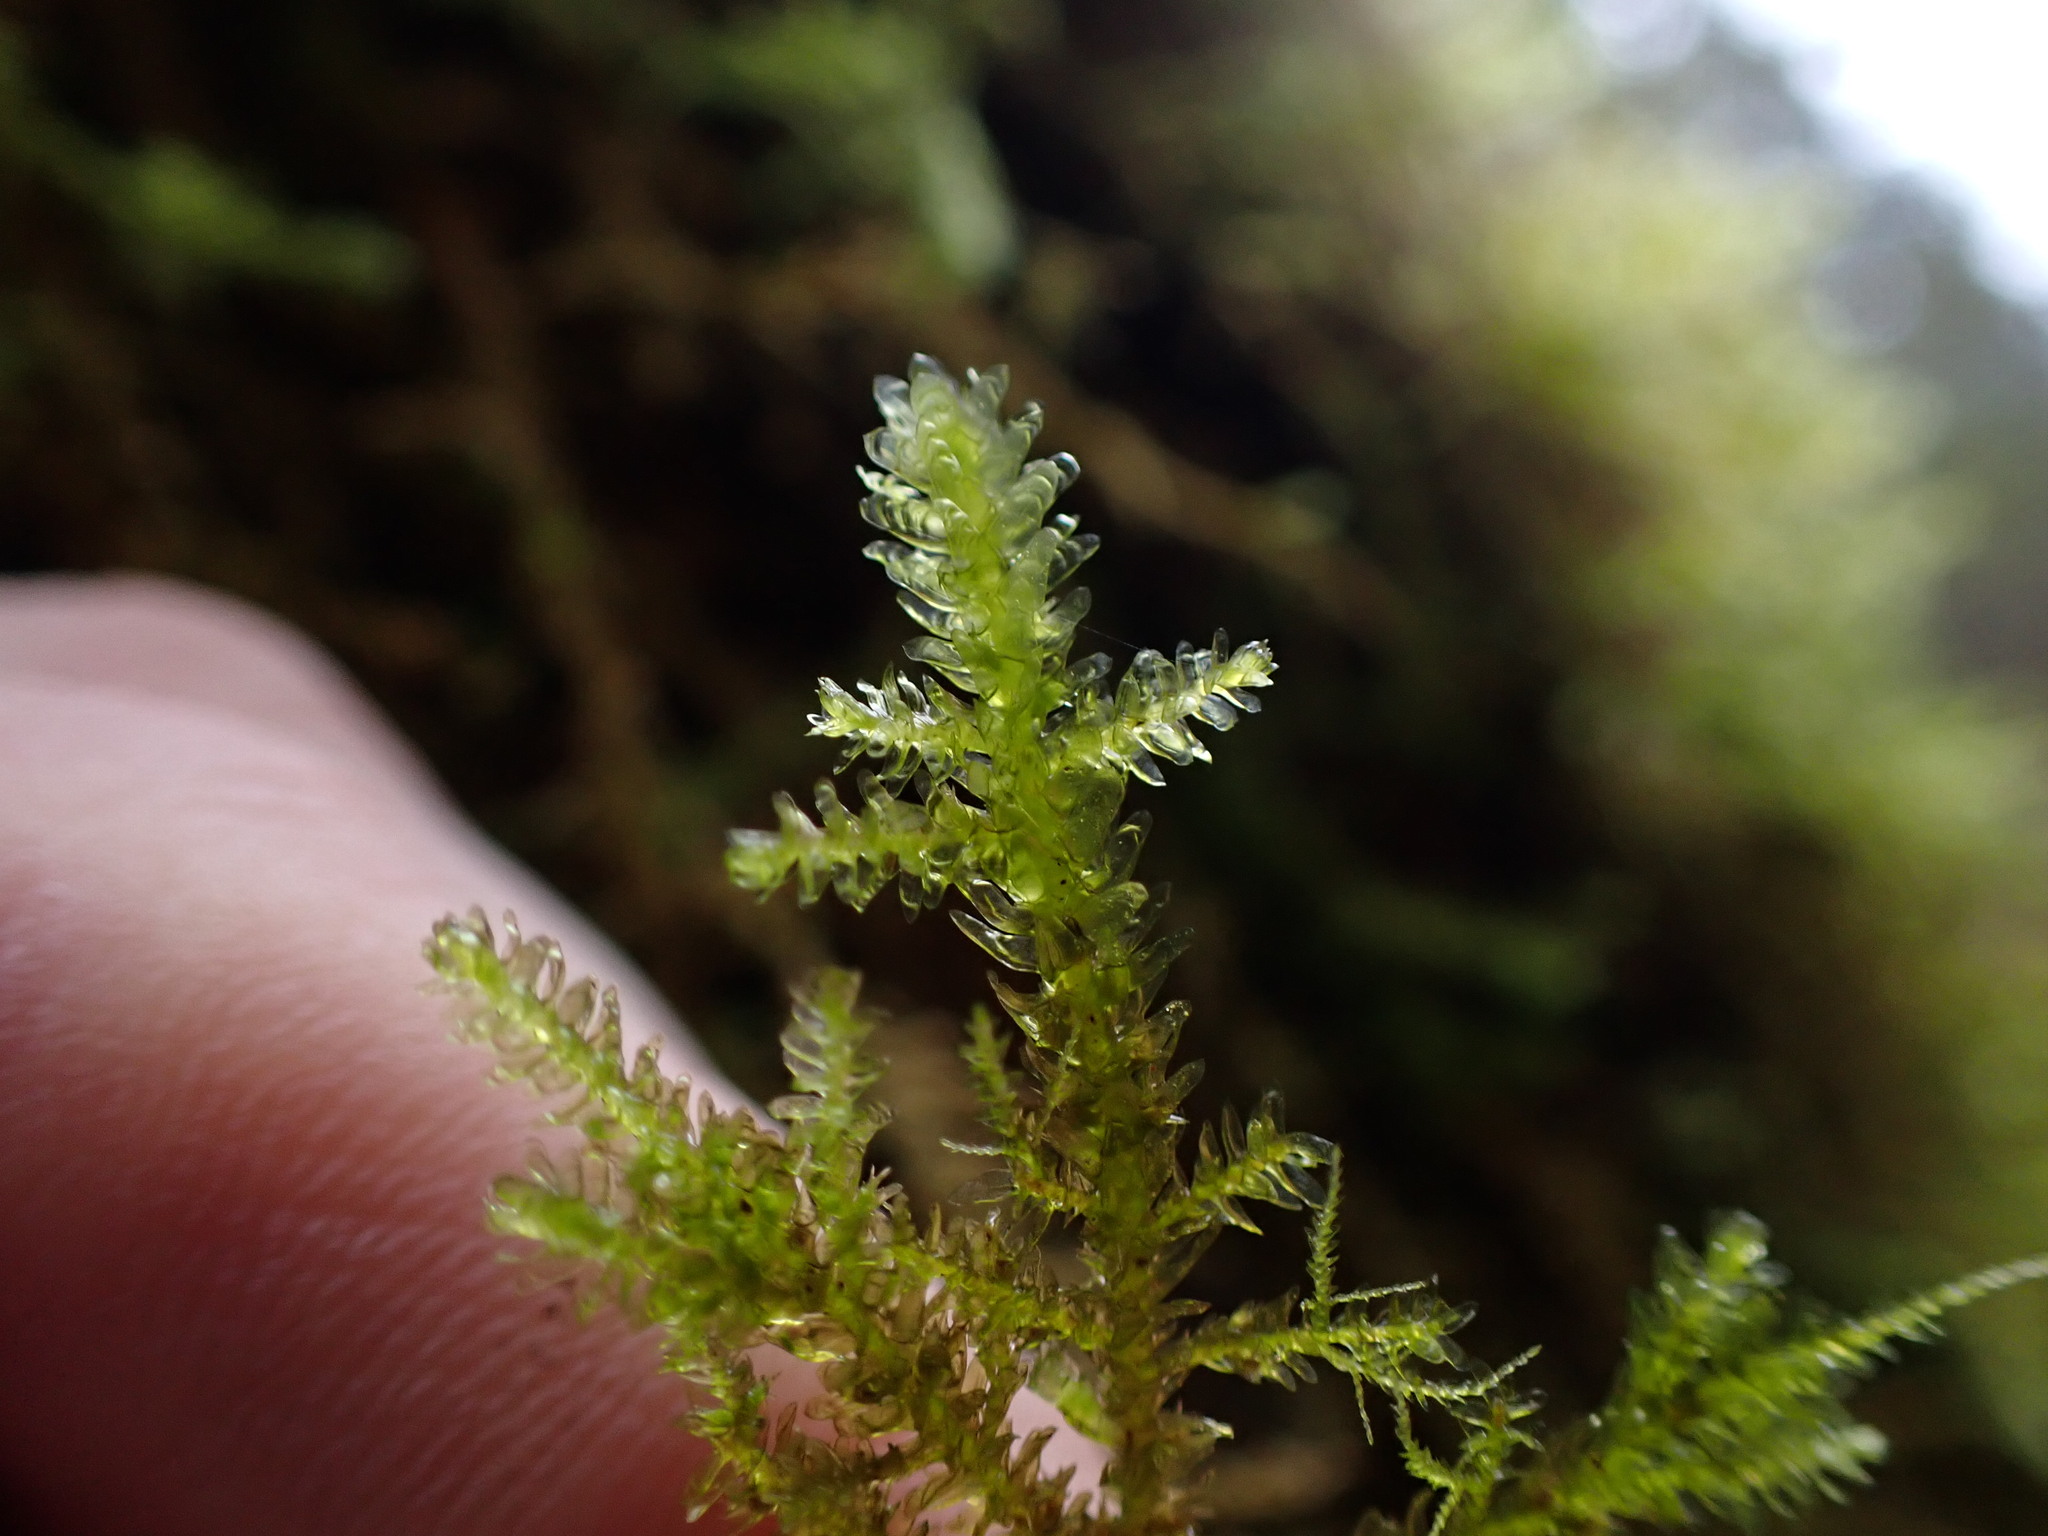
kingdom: Plantae
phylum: Bryophyta
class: Bryopsida
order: Hypnales
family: Neckeraceae
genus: Metaneckera
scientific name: Metaneckera menziesii
